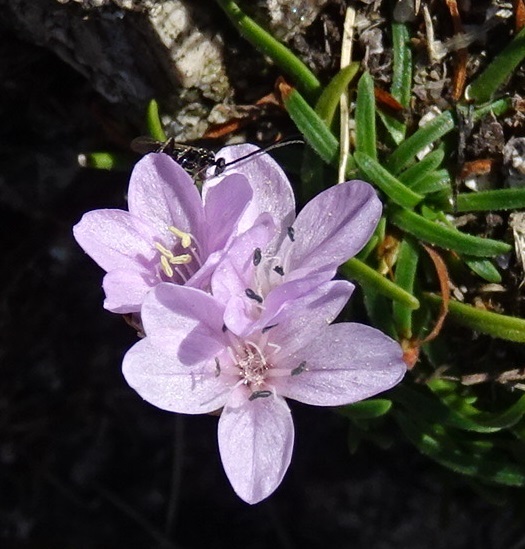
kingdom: Plantae
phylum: Tracheophyta
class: Magnoliopsida
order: Caryophyllales
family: Plumbaginaceae
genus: Armeria
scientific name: Armeria maritima
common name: Thrift
